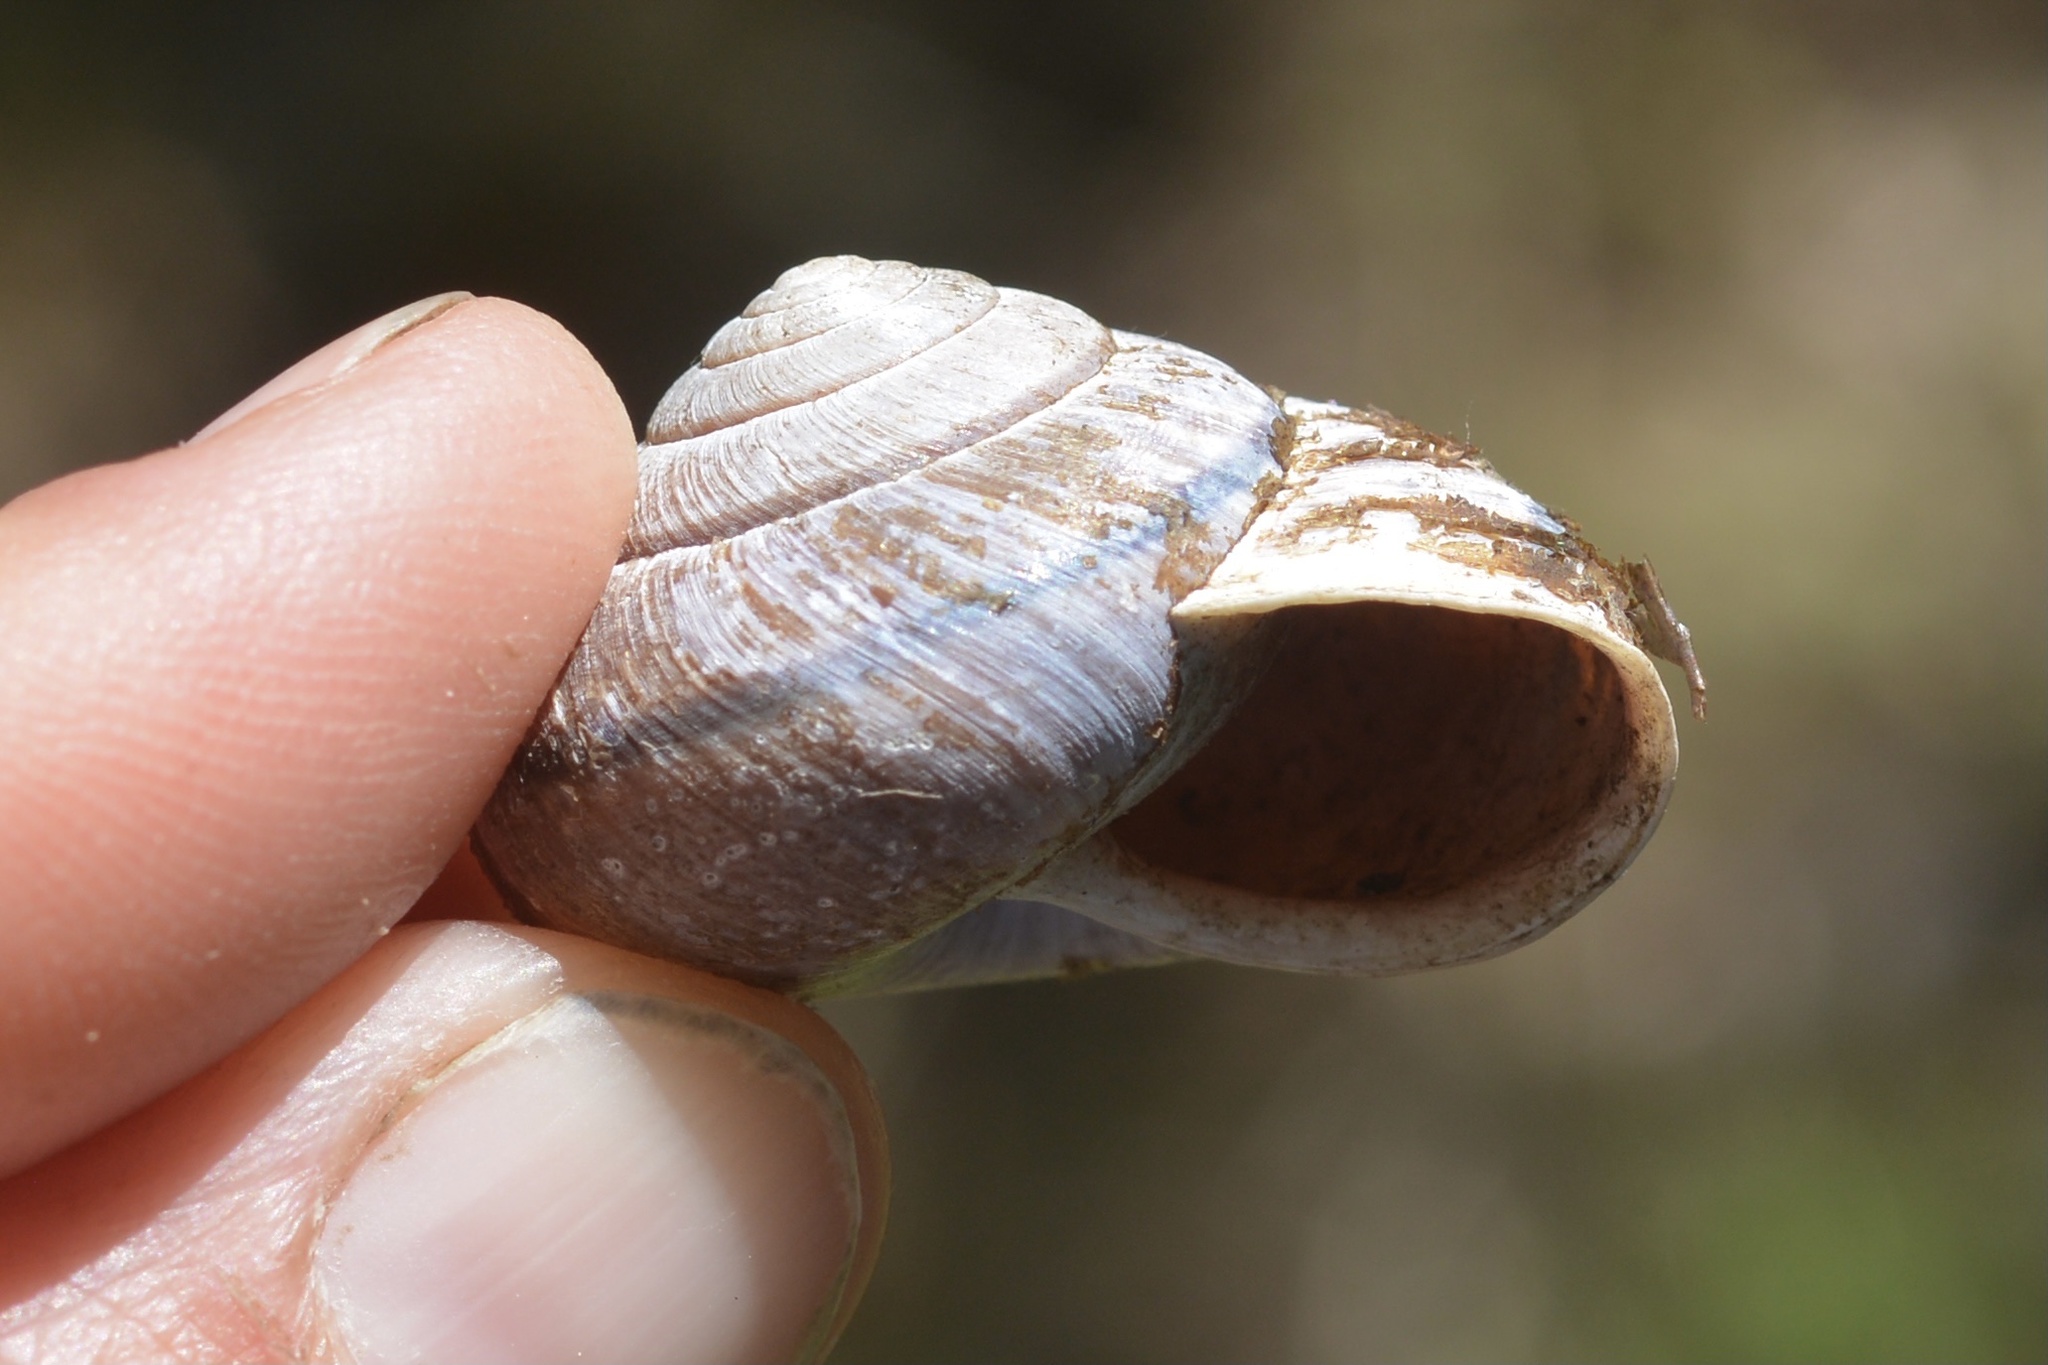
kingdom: Animalia
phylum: Mollusca
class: Gastropoda
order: Stylommatophora
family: Xanthonychidae
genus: Helminthoglypta
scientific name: Helminthoglypta arrosa
